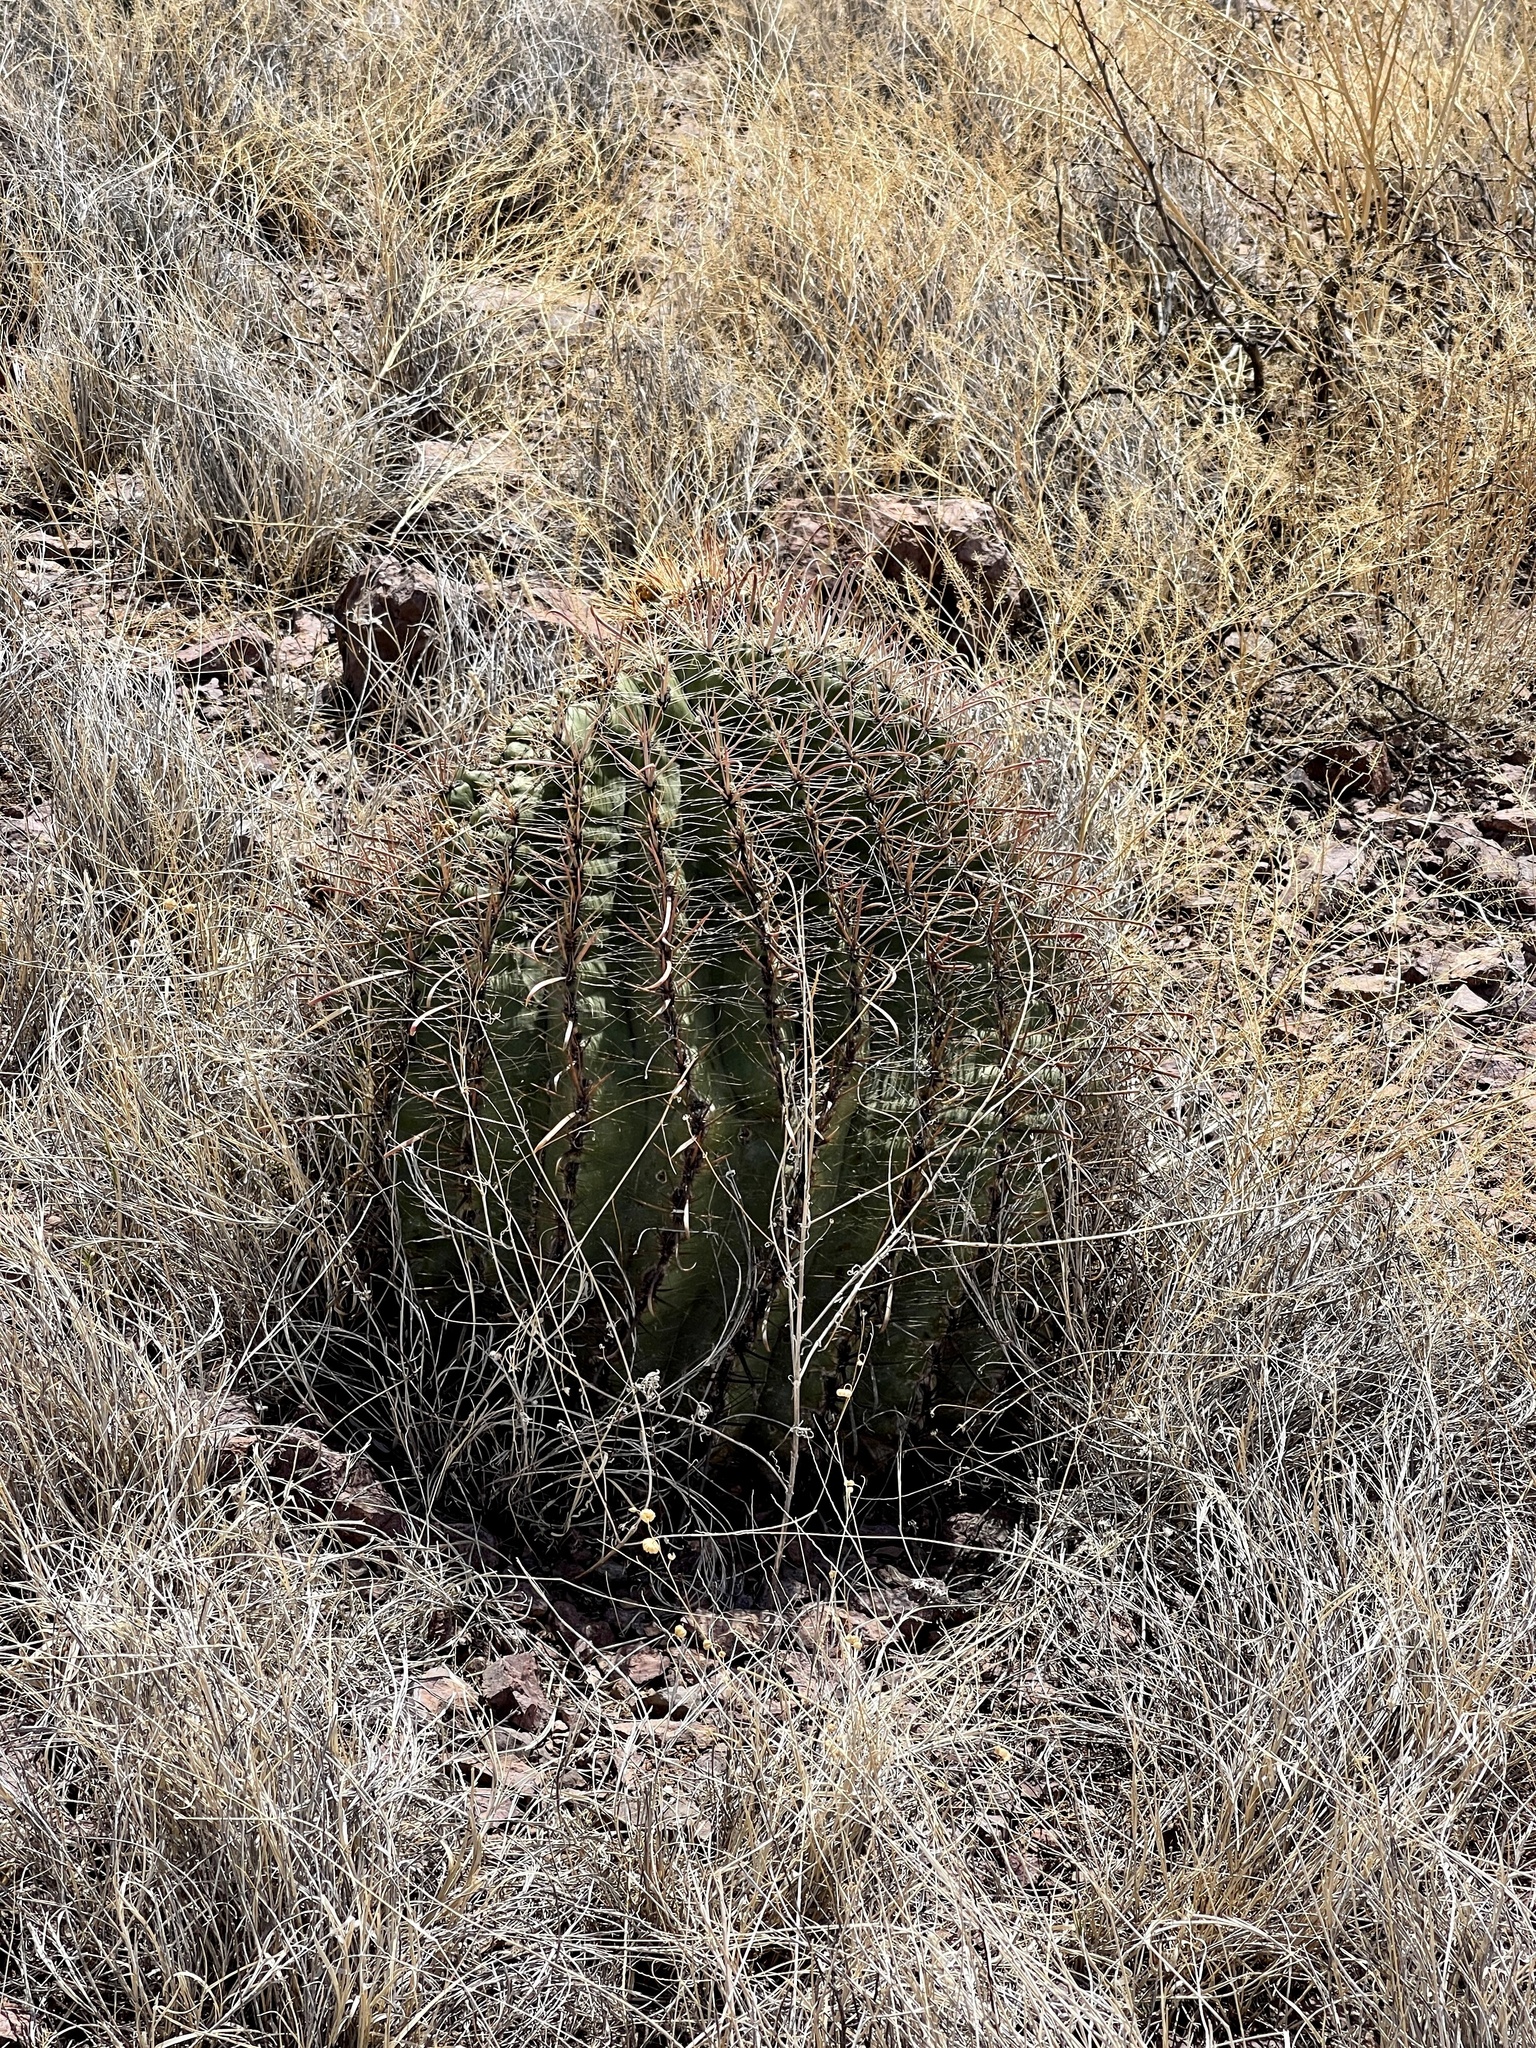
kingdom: Plantae
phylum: Tracheophyta
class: Magnoliopsida
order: Caryophyllales
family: Cactaceae
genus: Ferocactus
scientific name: Ferocactus wislizeni
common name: Candy barrel cactus
